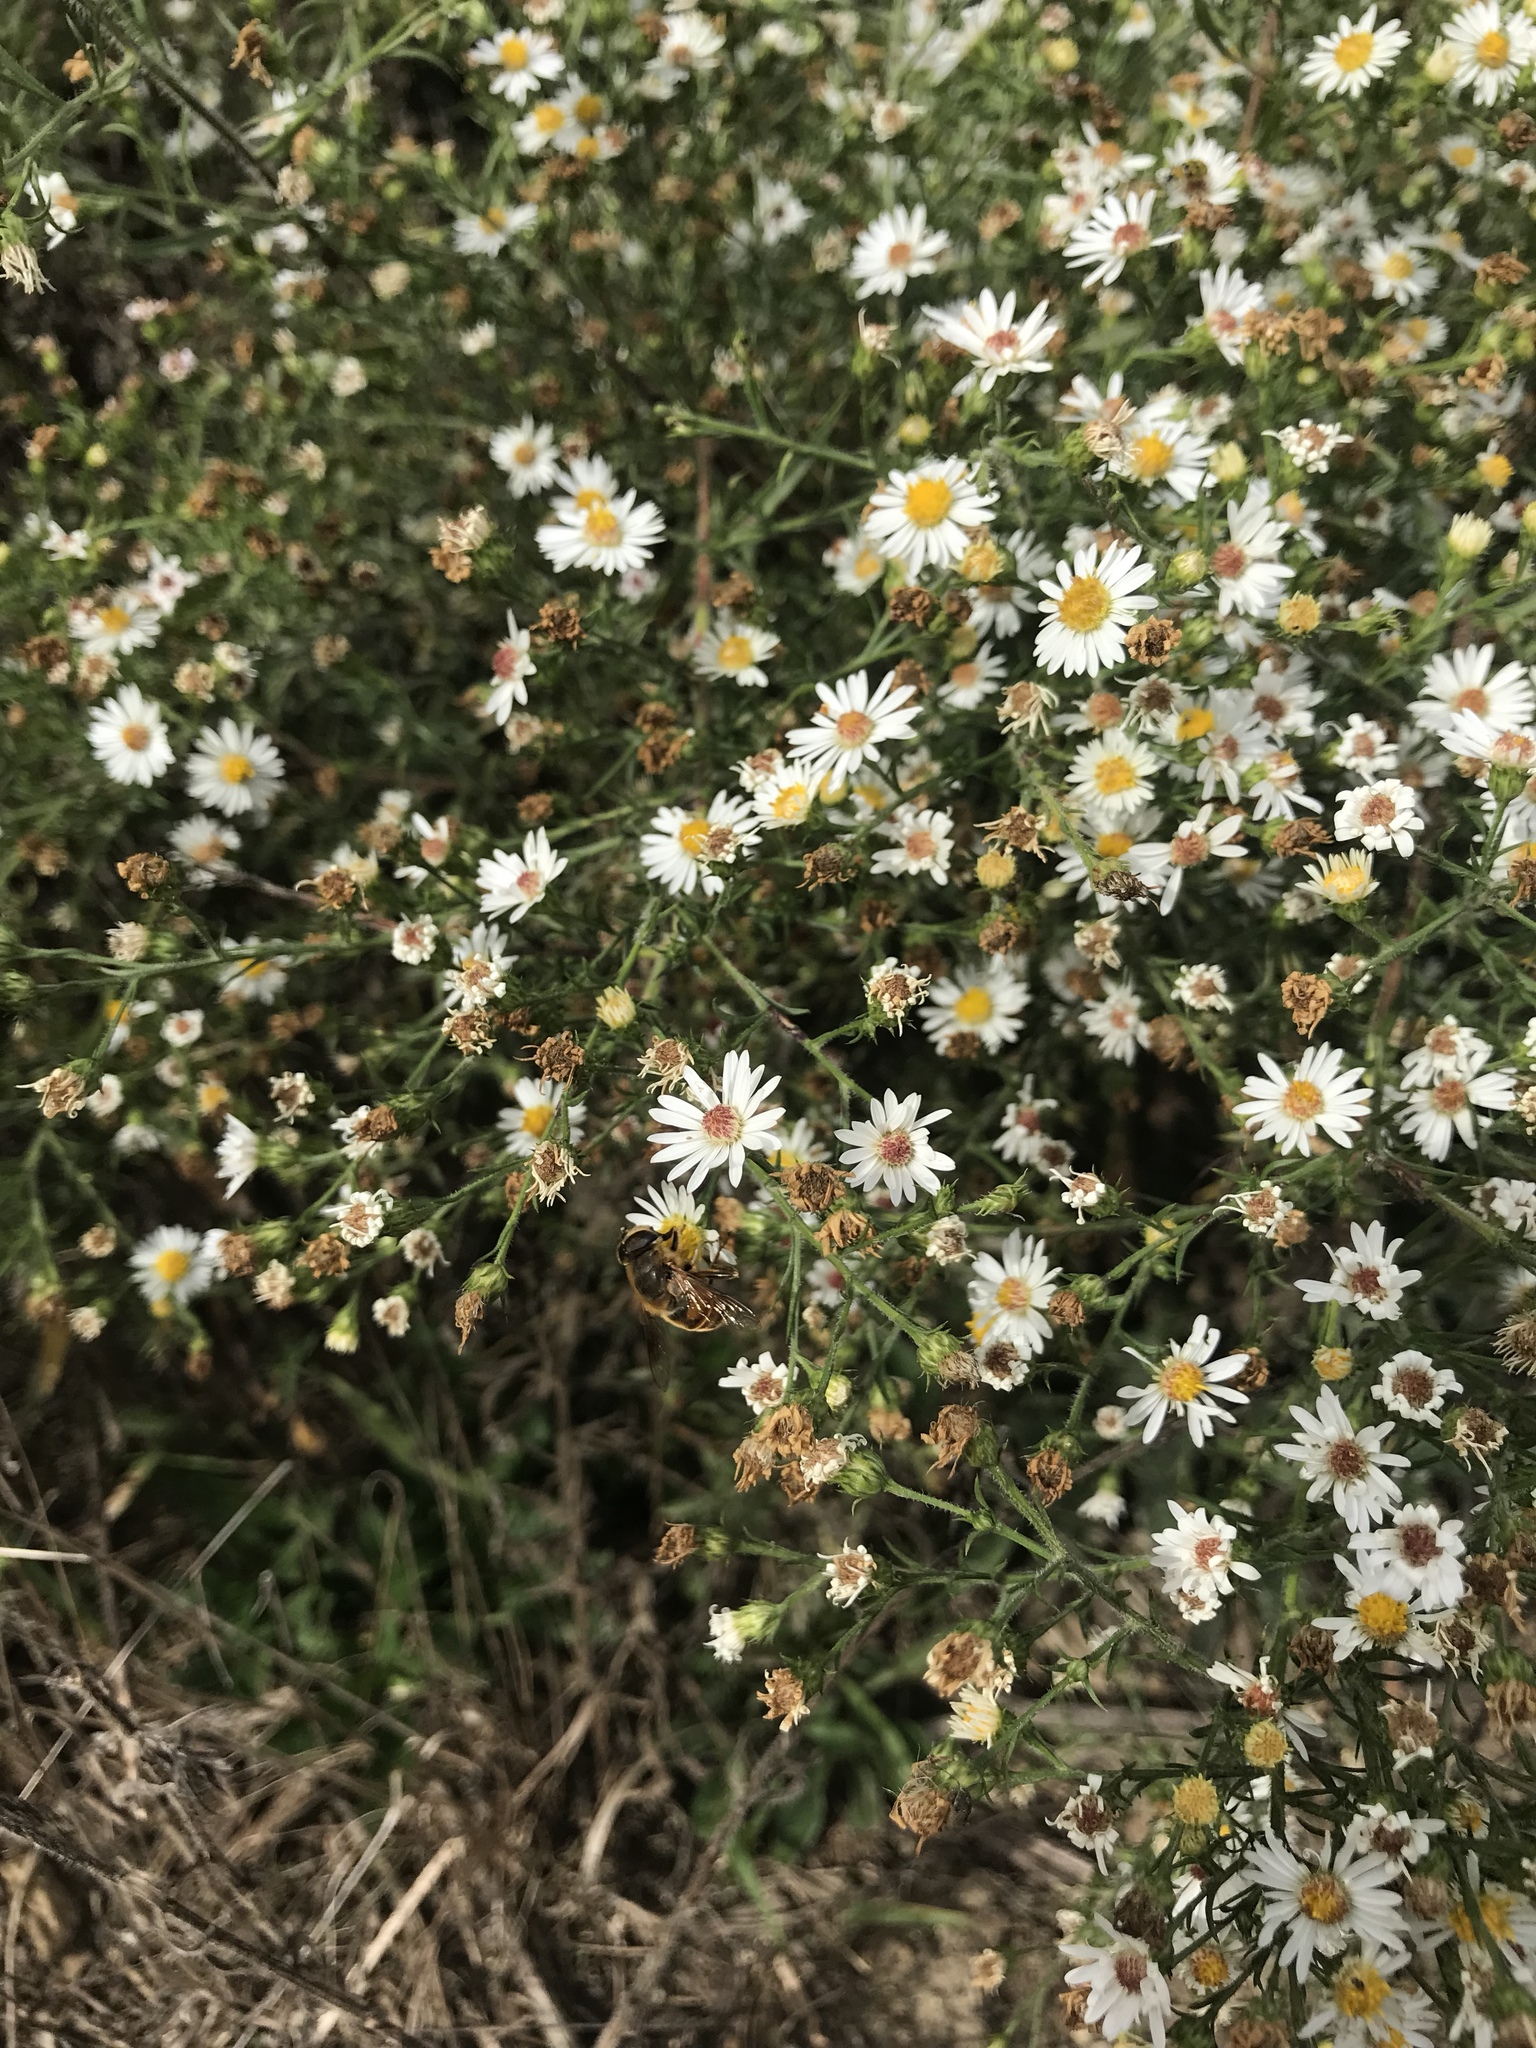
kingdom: Animalia
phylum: Arthropoda
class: Insecta
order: Diptera
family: Syrphidae
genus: Eristalis
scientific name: Eristalis tenax
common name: Drone fly
